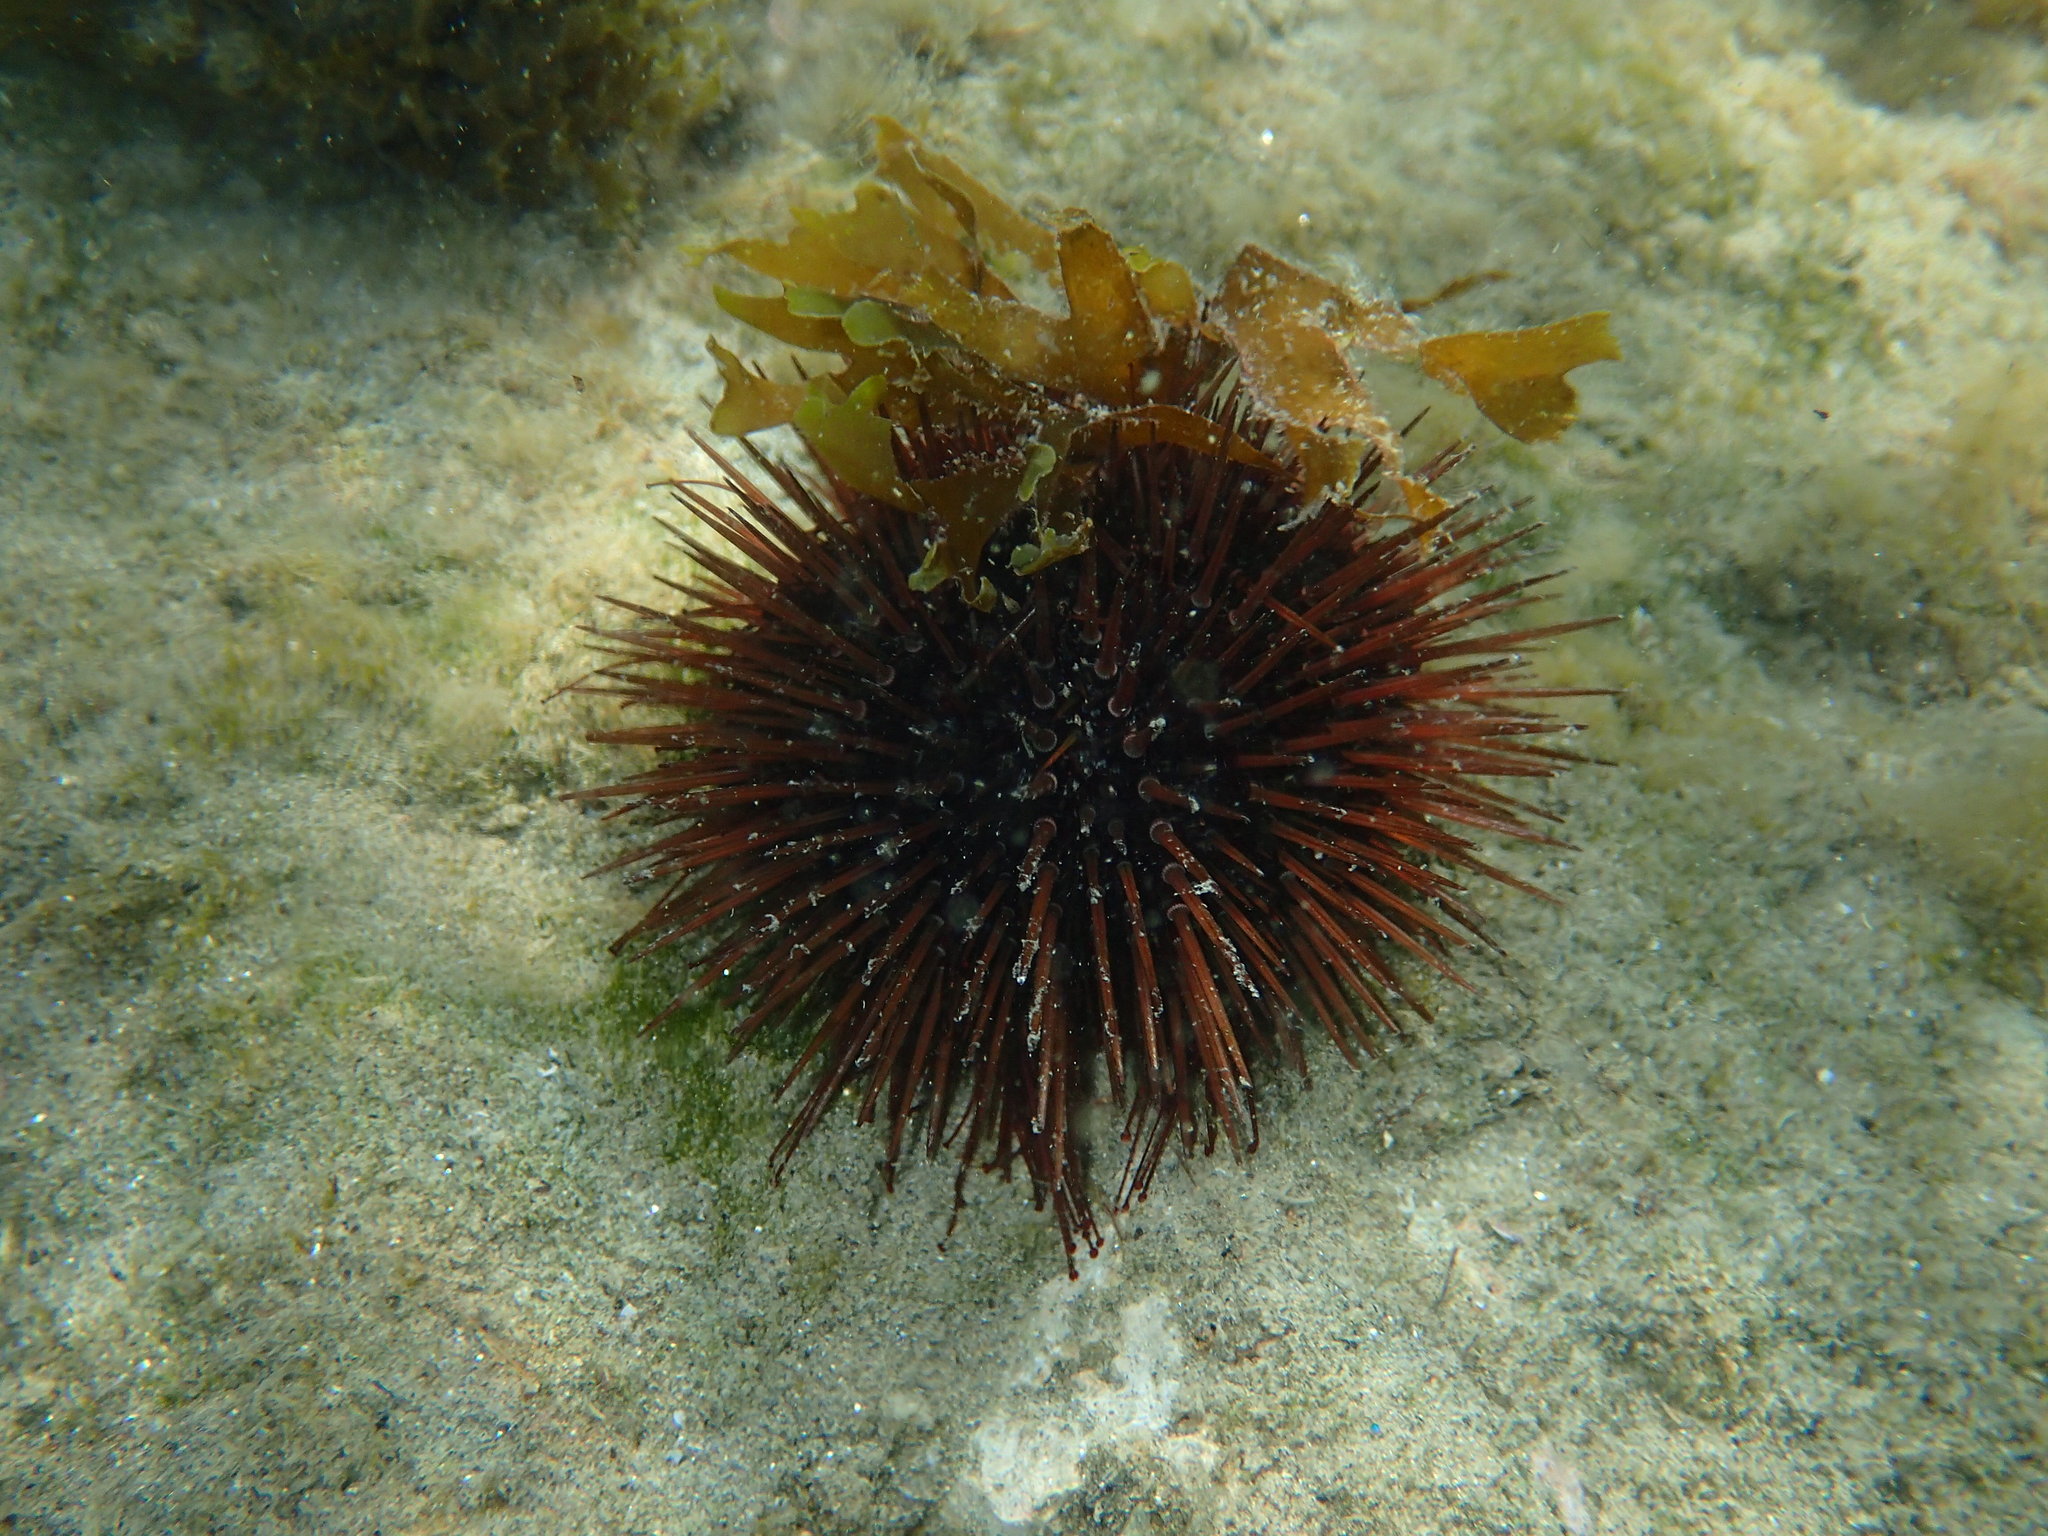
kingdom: Animalia
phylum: Echinodermata
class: Echinoidea
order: Camarodonta
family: Parechinidae
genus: Paracentrotus
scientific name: Paracentrotus lividus
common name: Purple sea urchin
